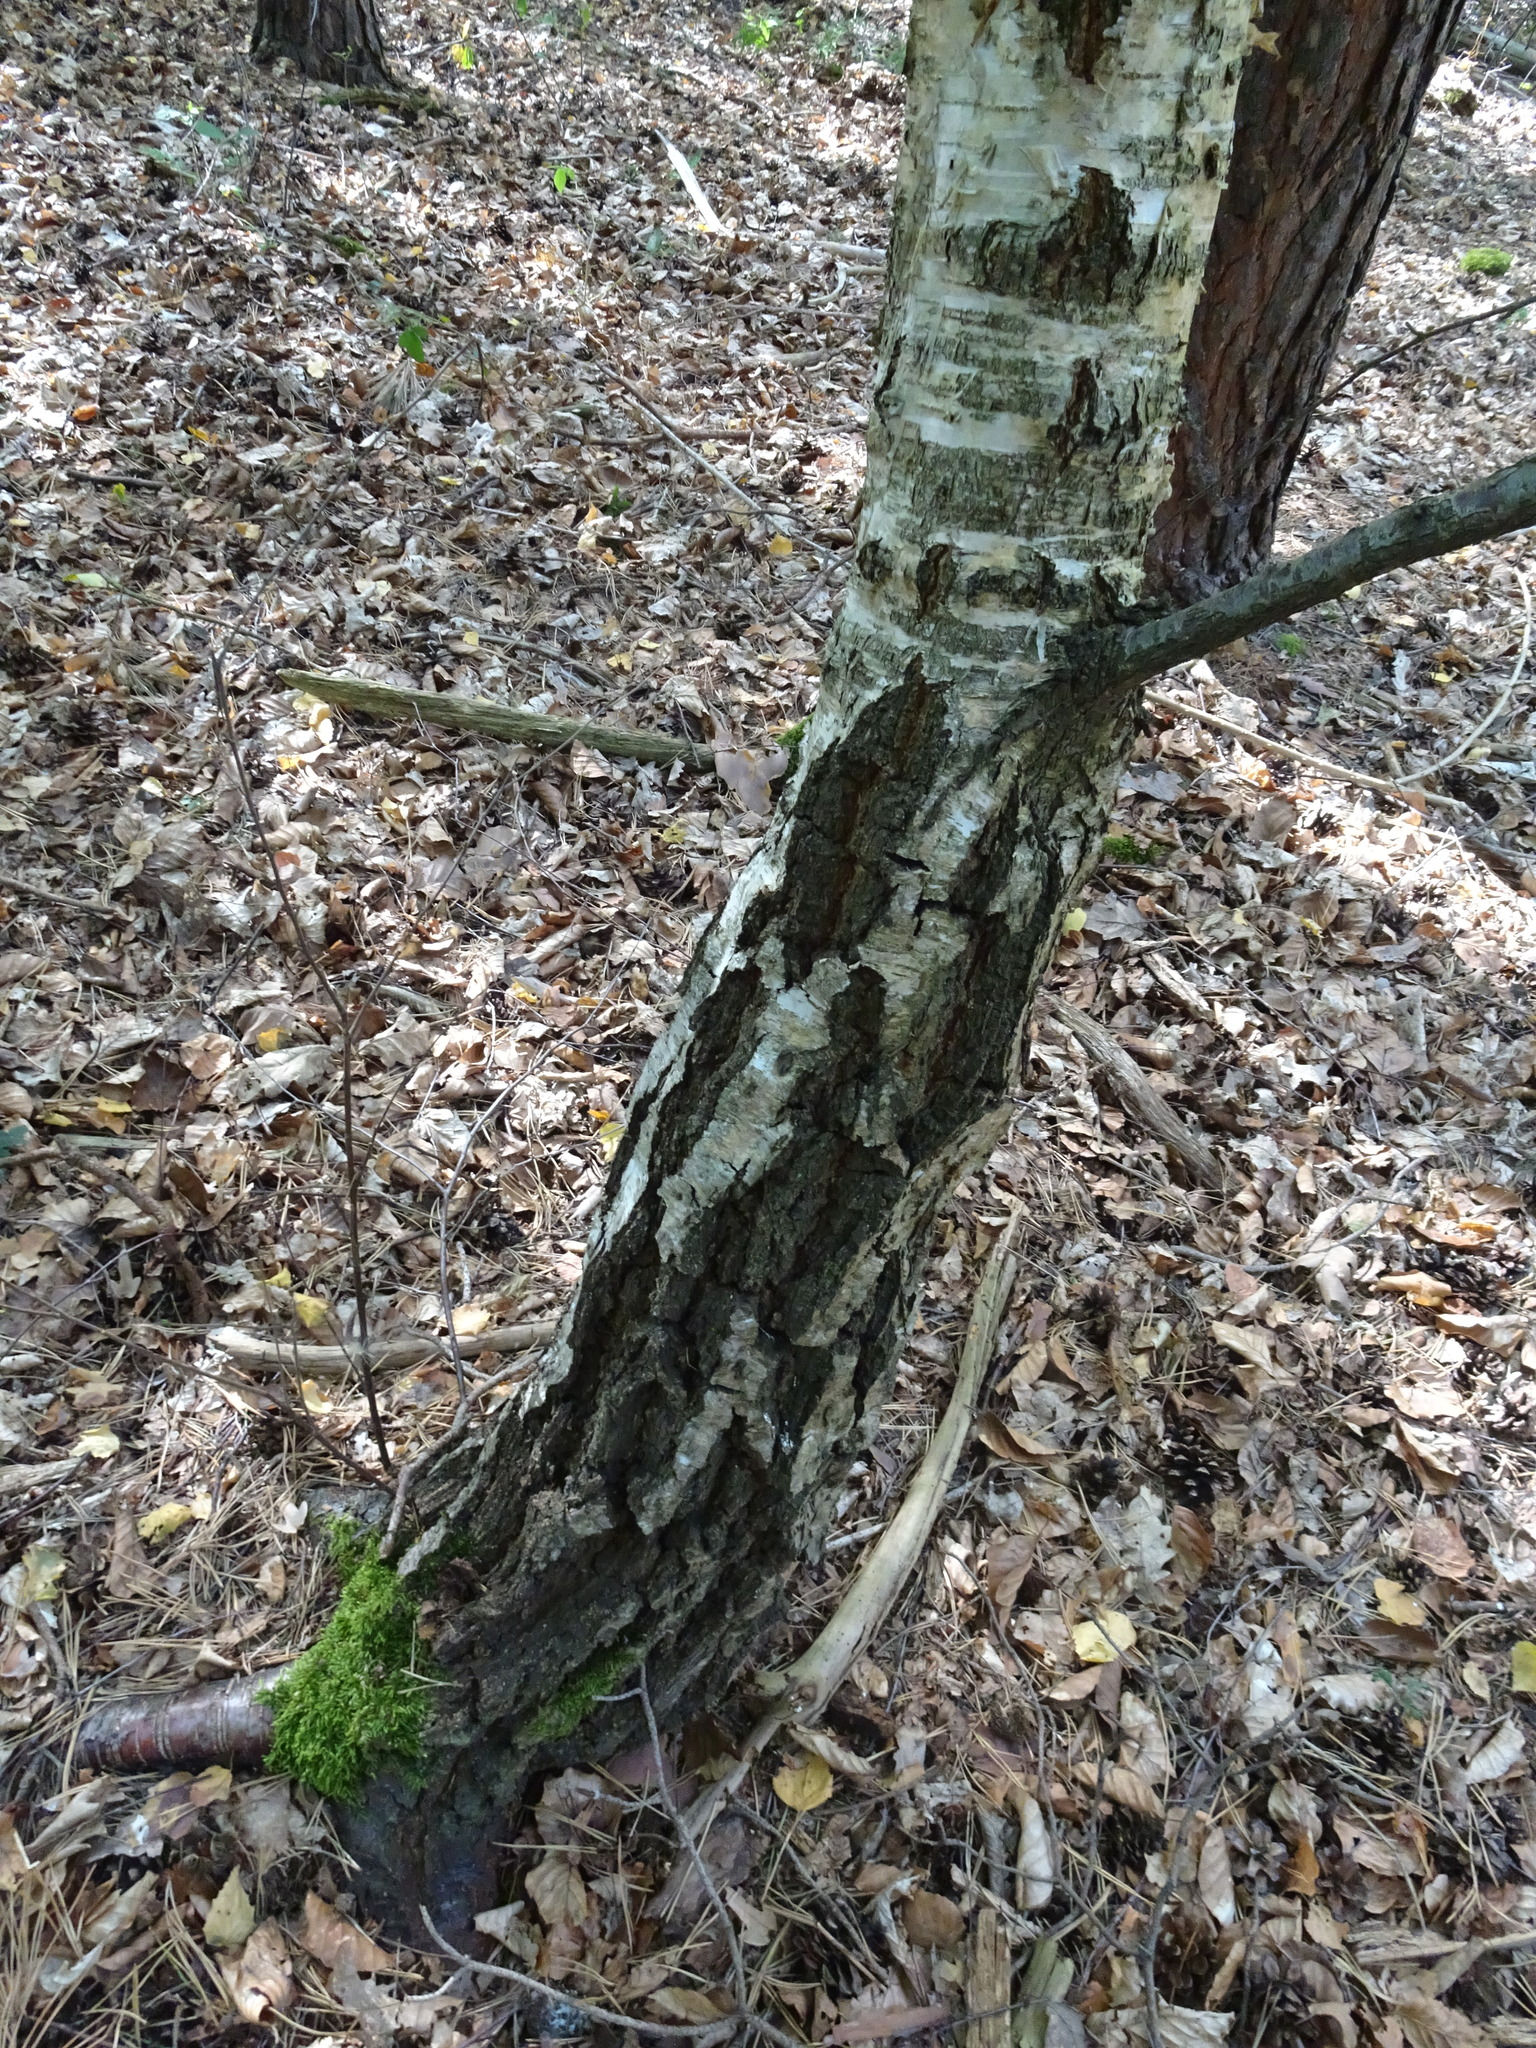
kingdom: Plantae
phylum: Tracheophyta
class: Magnoliopsida
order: Fagales
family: Betulaceae
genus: Betula
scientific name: Betula pendula
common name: Silver birch
